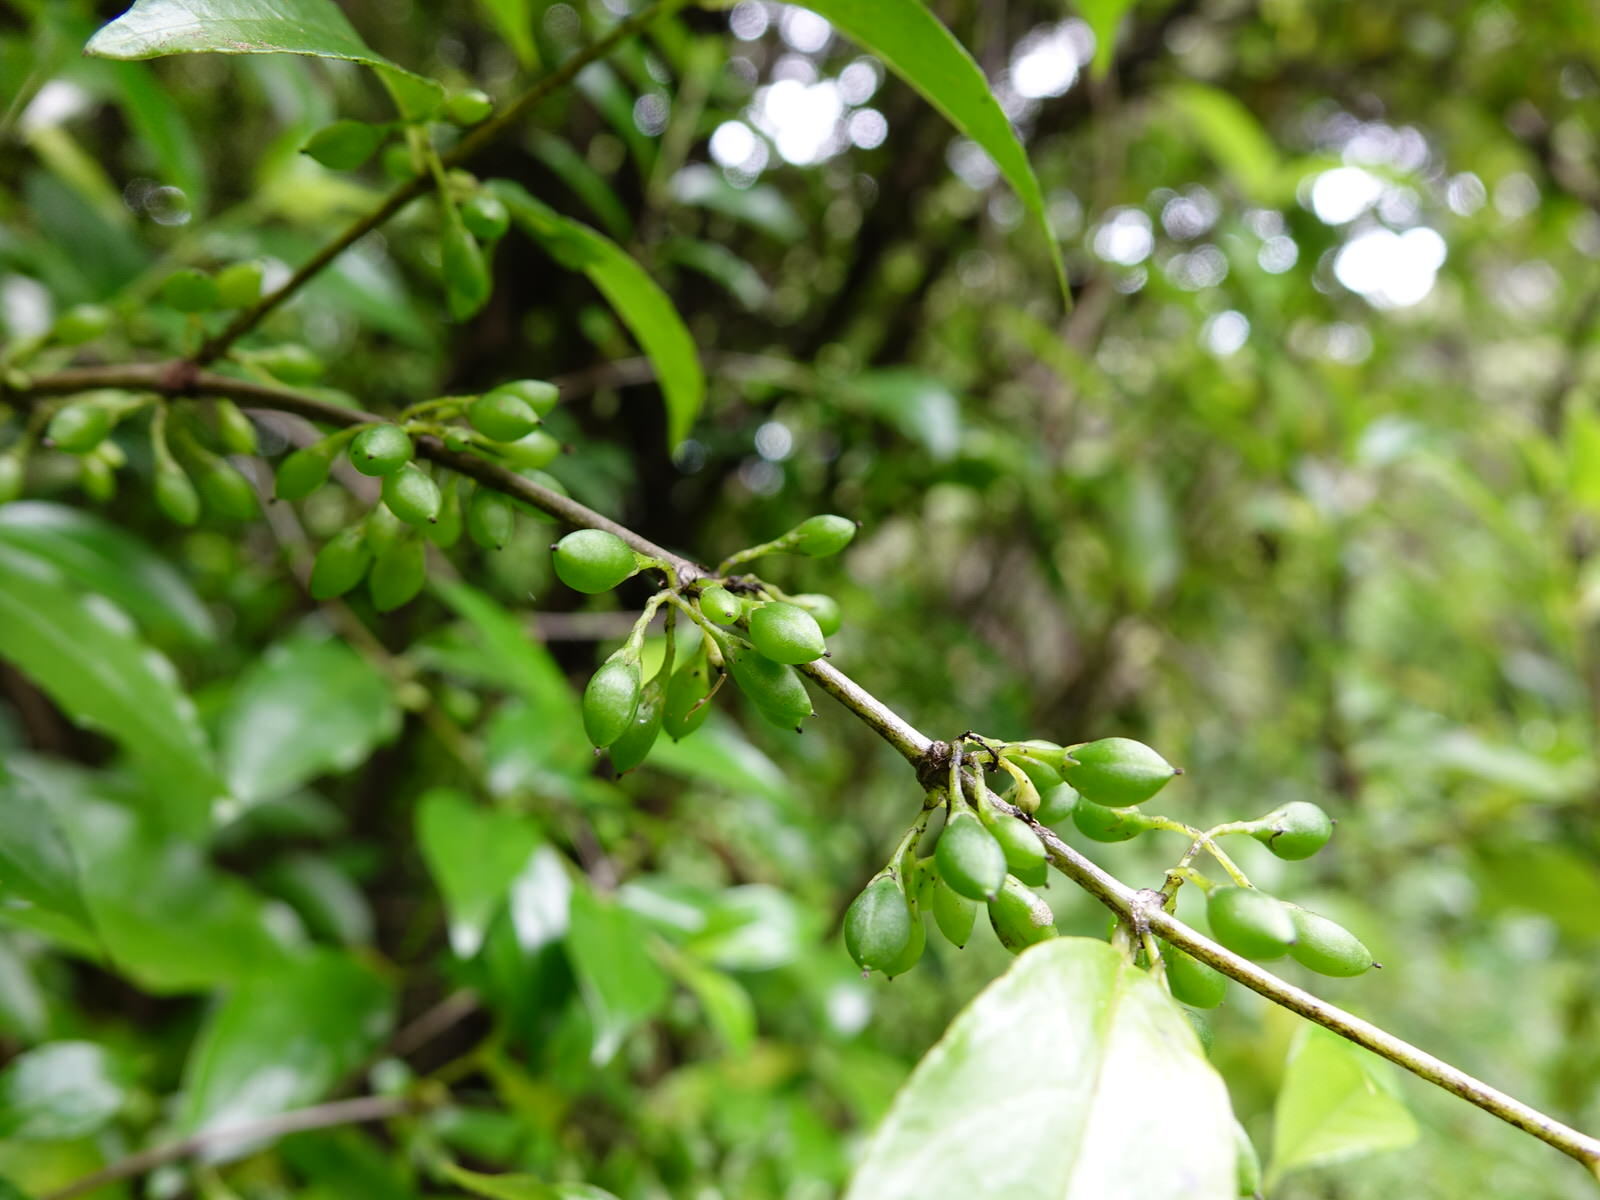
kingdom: Plantae
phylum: Tracheophyta
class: Magnoliopsida
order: Gentianales
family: Loganiaceae
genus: Geniostoma
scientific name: Geniostoma ligustrifolium
